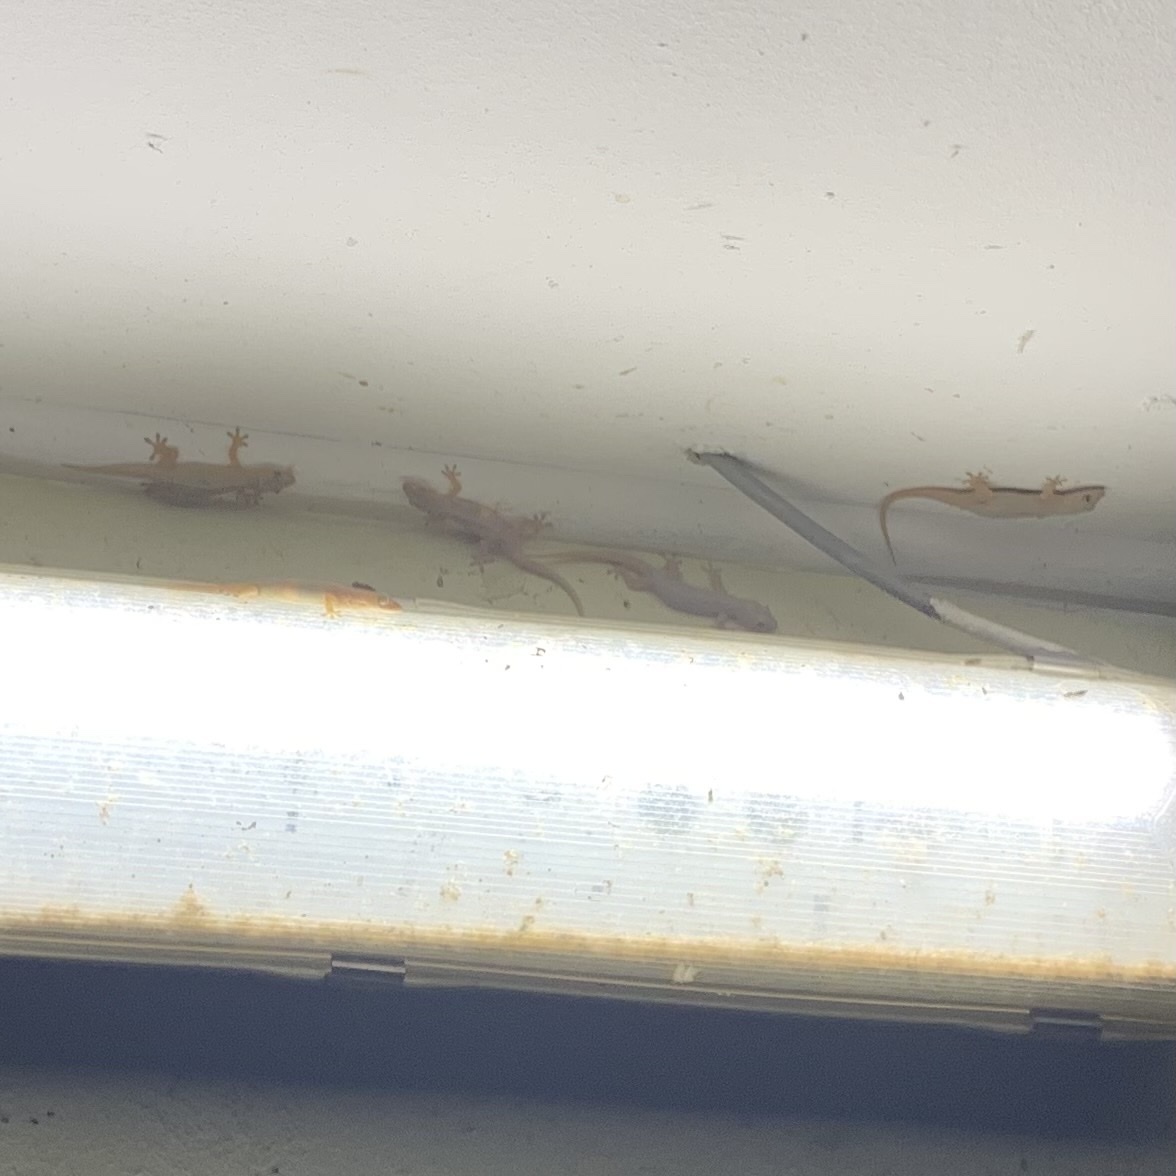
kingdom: Animalia
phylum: Chordata
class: Squamata
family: Gekkonidae
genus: Hemidactylus
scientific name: Hemidactylus frenatus
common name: Common house gecko
